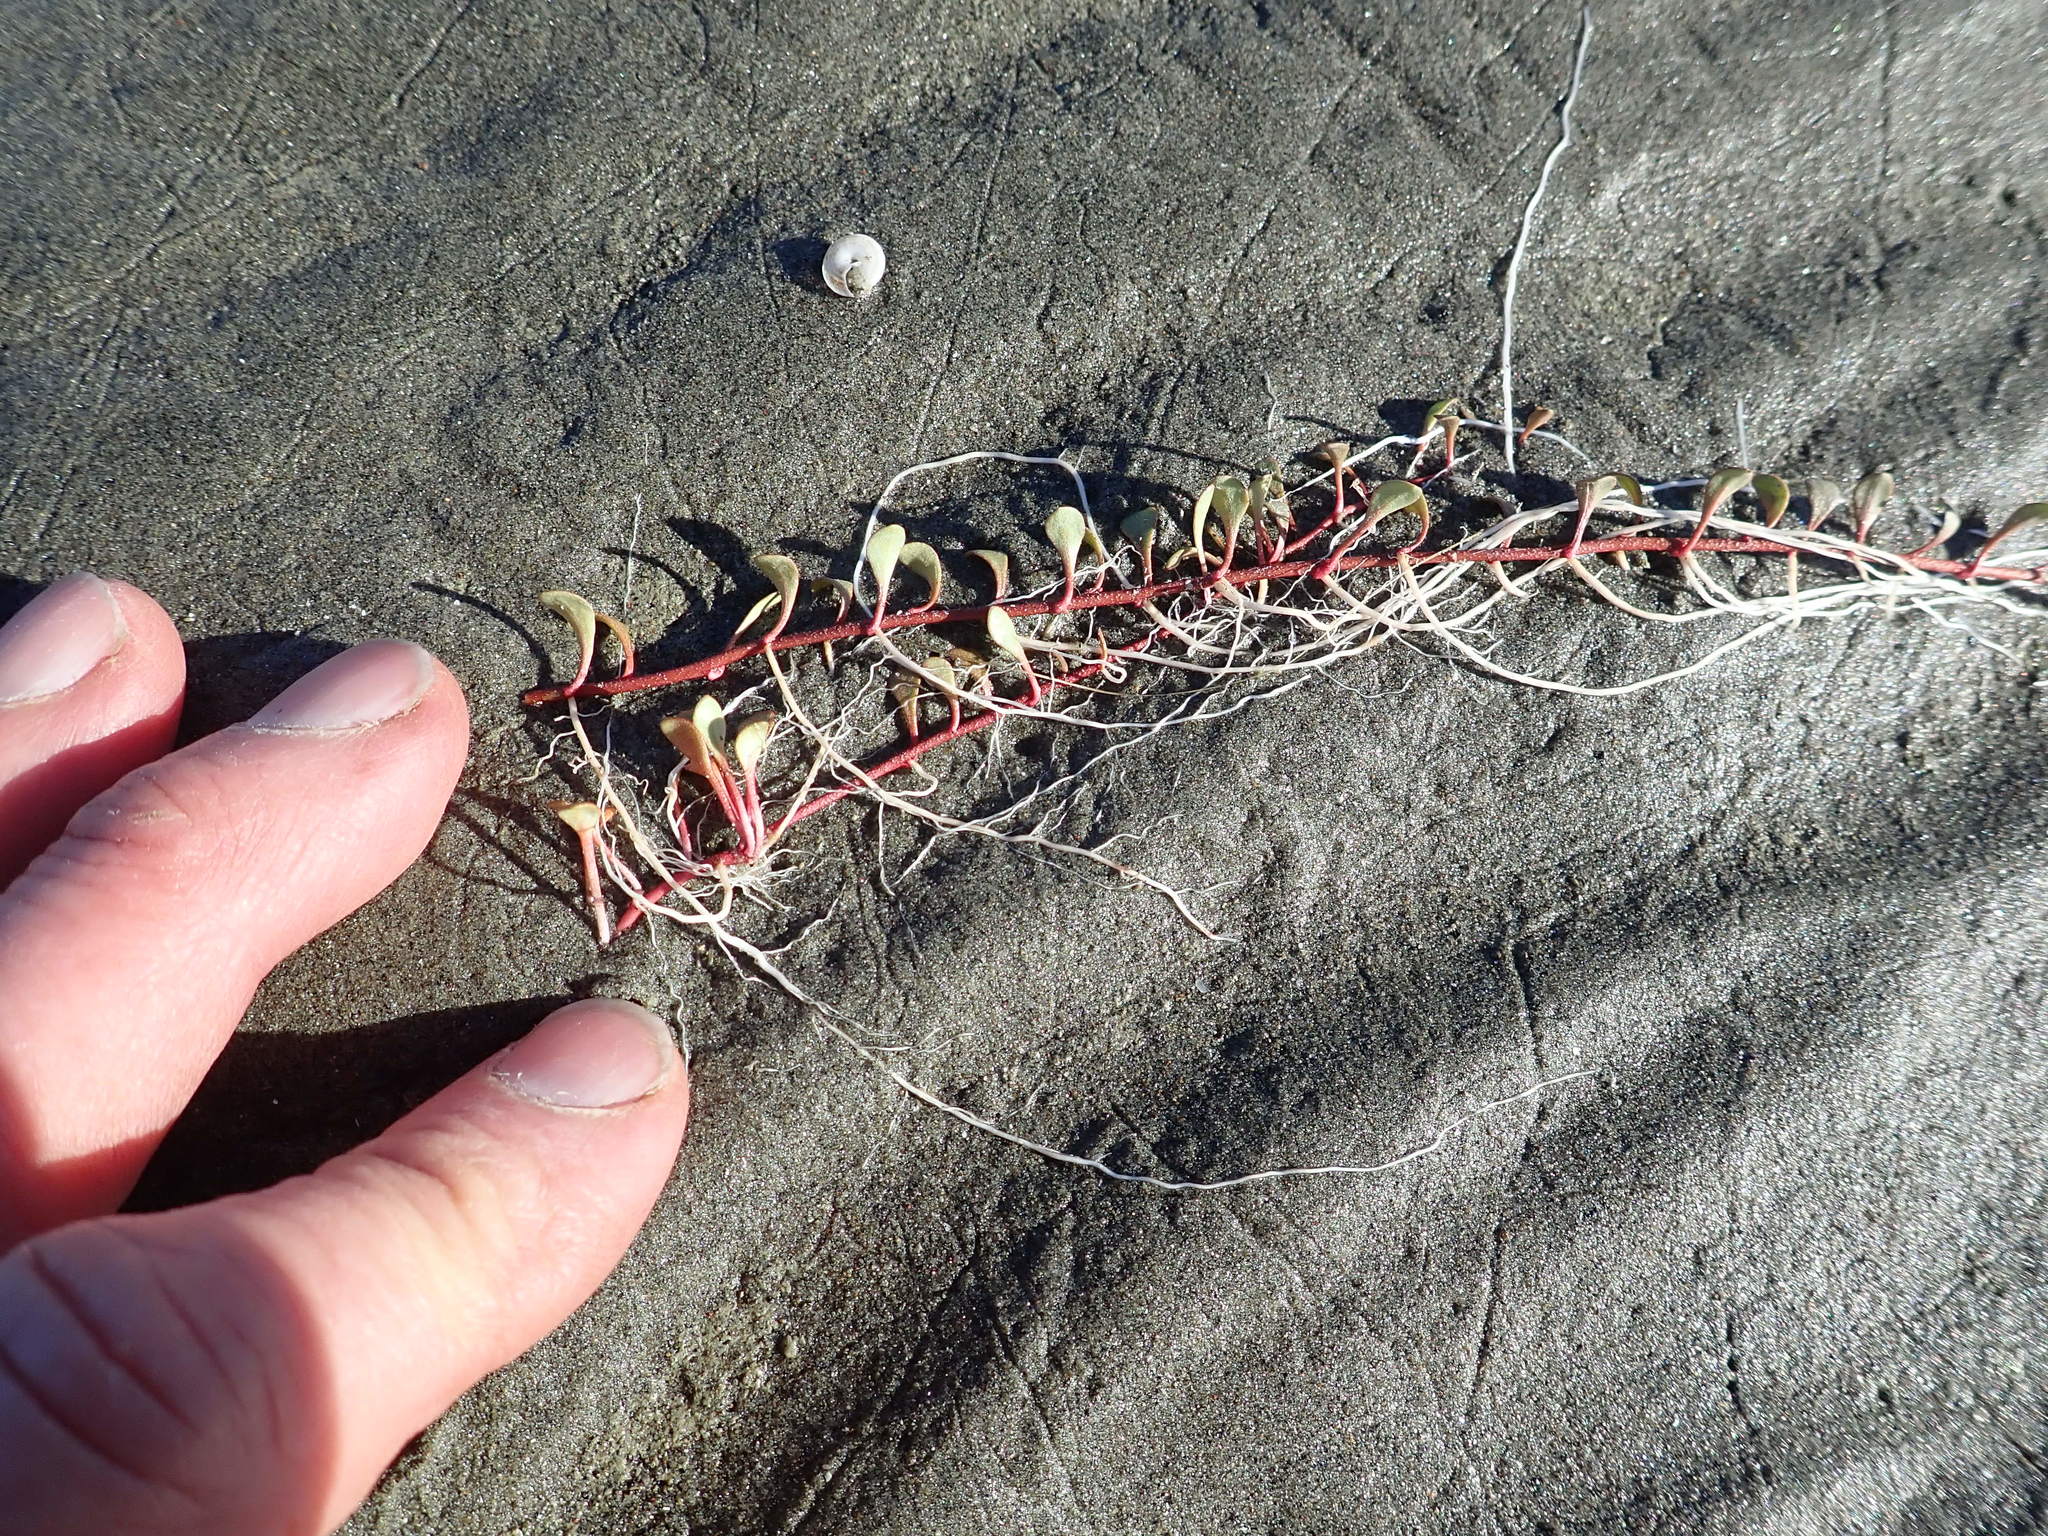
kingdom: Plantae
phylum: Tracheophyta
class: Magnoliopsida
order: Ericales
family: Primulaceae
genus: Samolus
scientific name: Samolus repens
